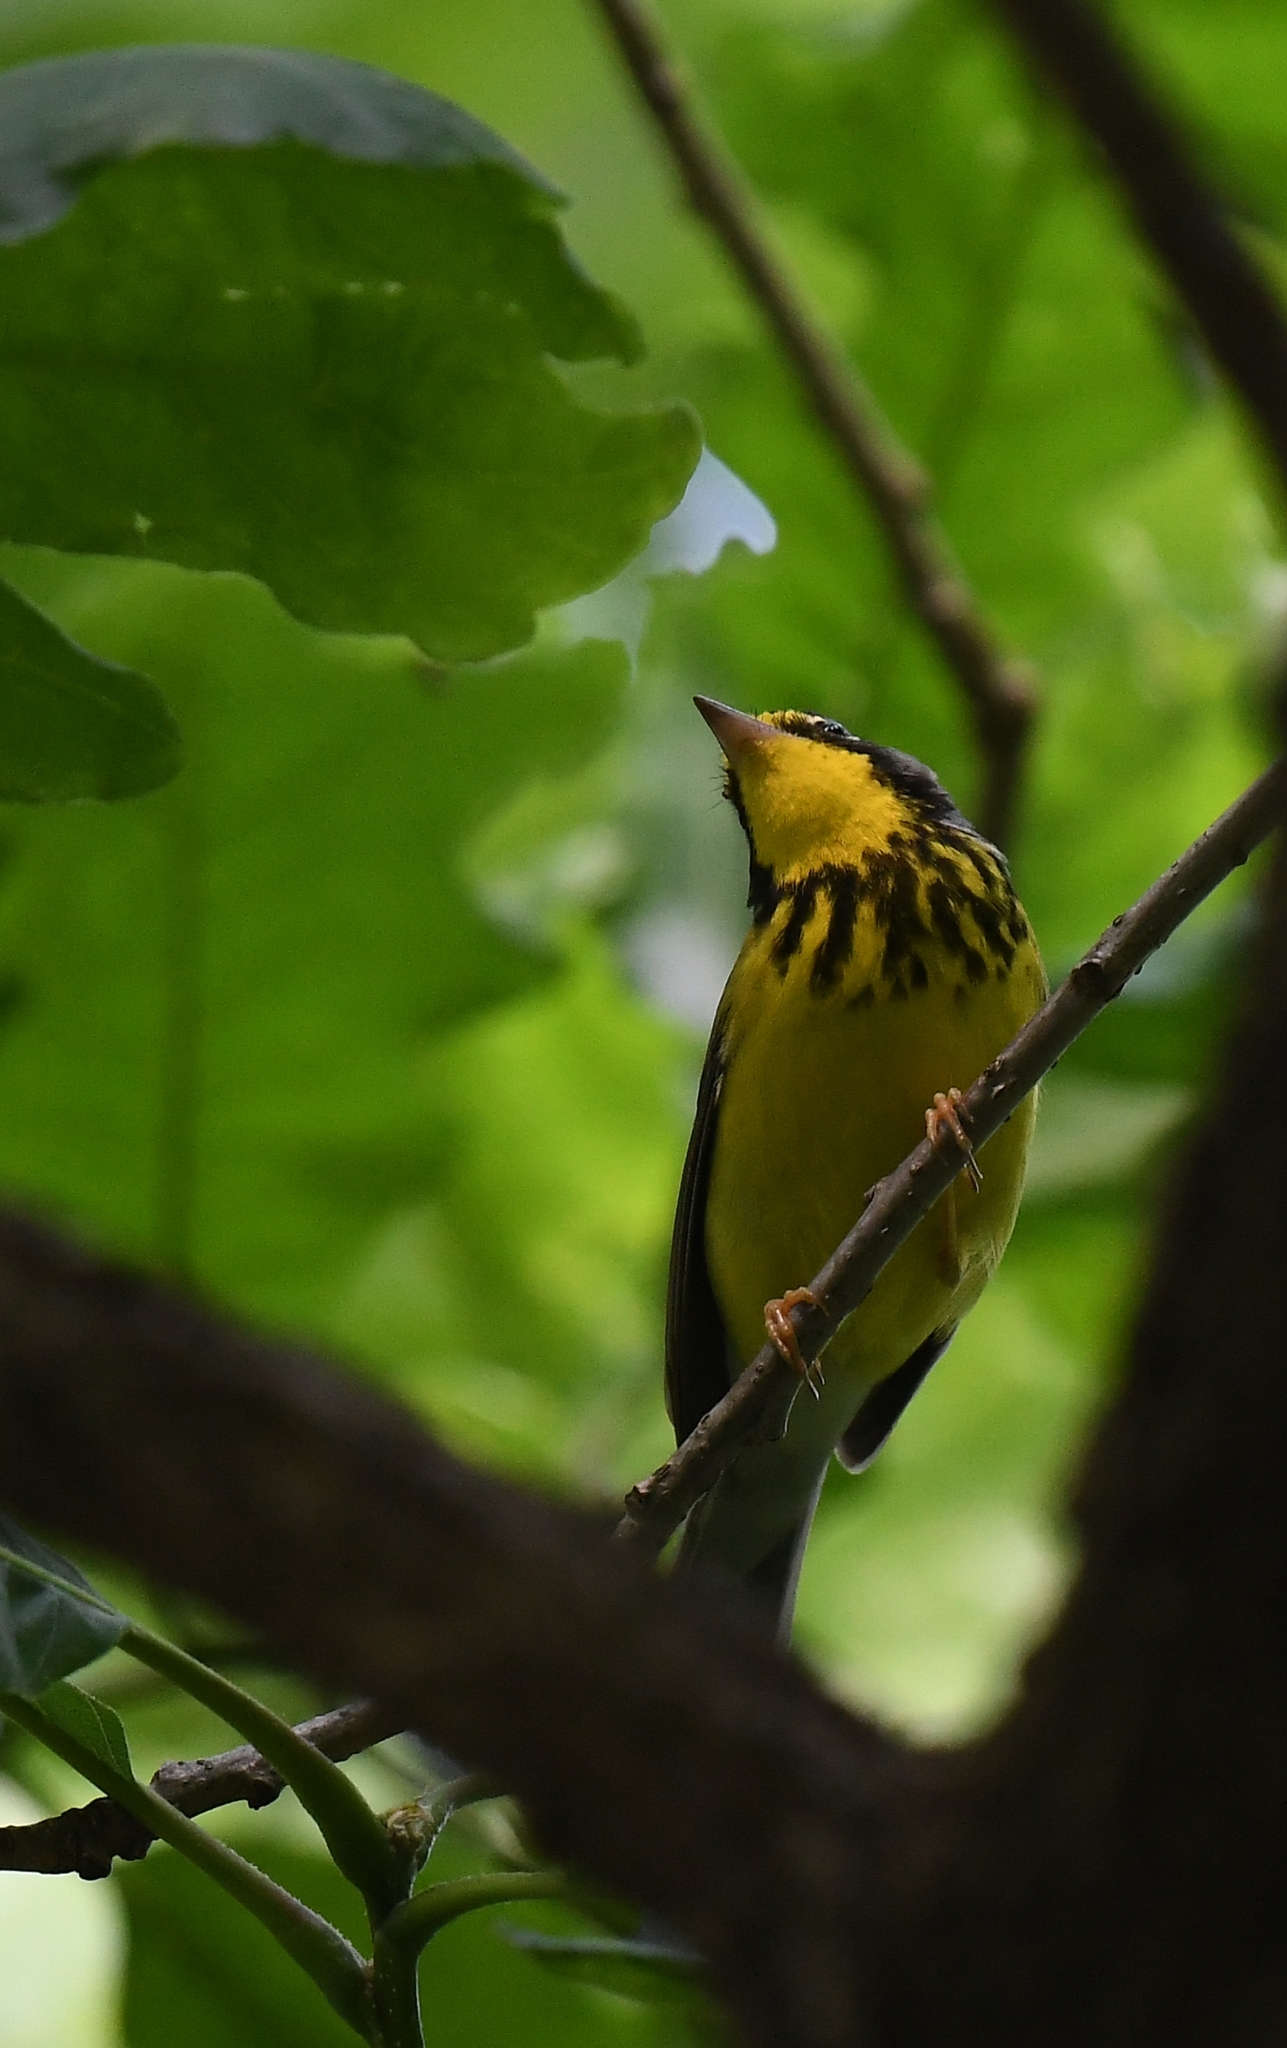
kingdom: Animalia
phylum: Chordata
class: Aves
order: Passeriformes
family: Parulidae
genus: Cardellina
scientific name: Cardellina canadensis
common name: Canada warbler
